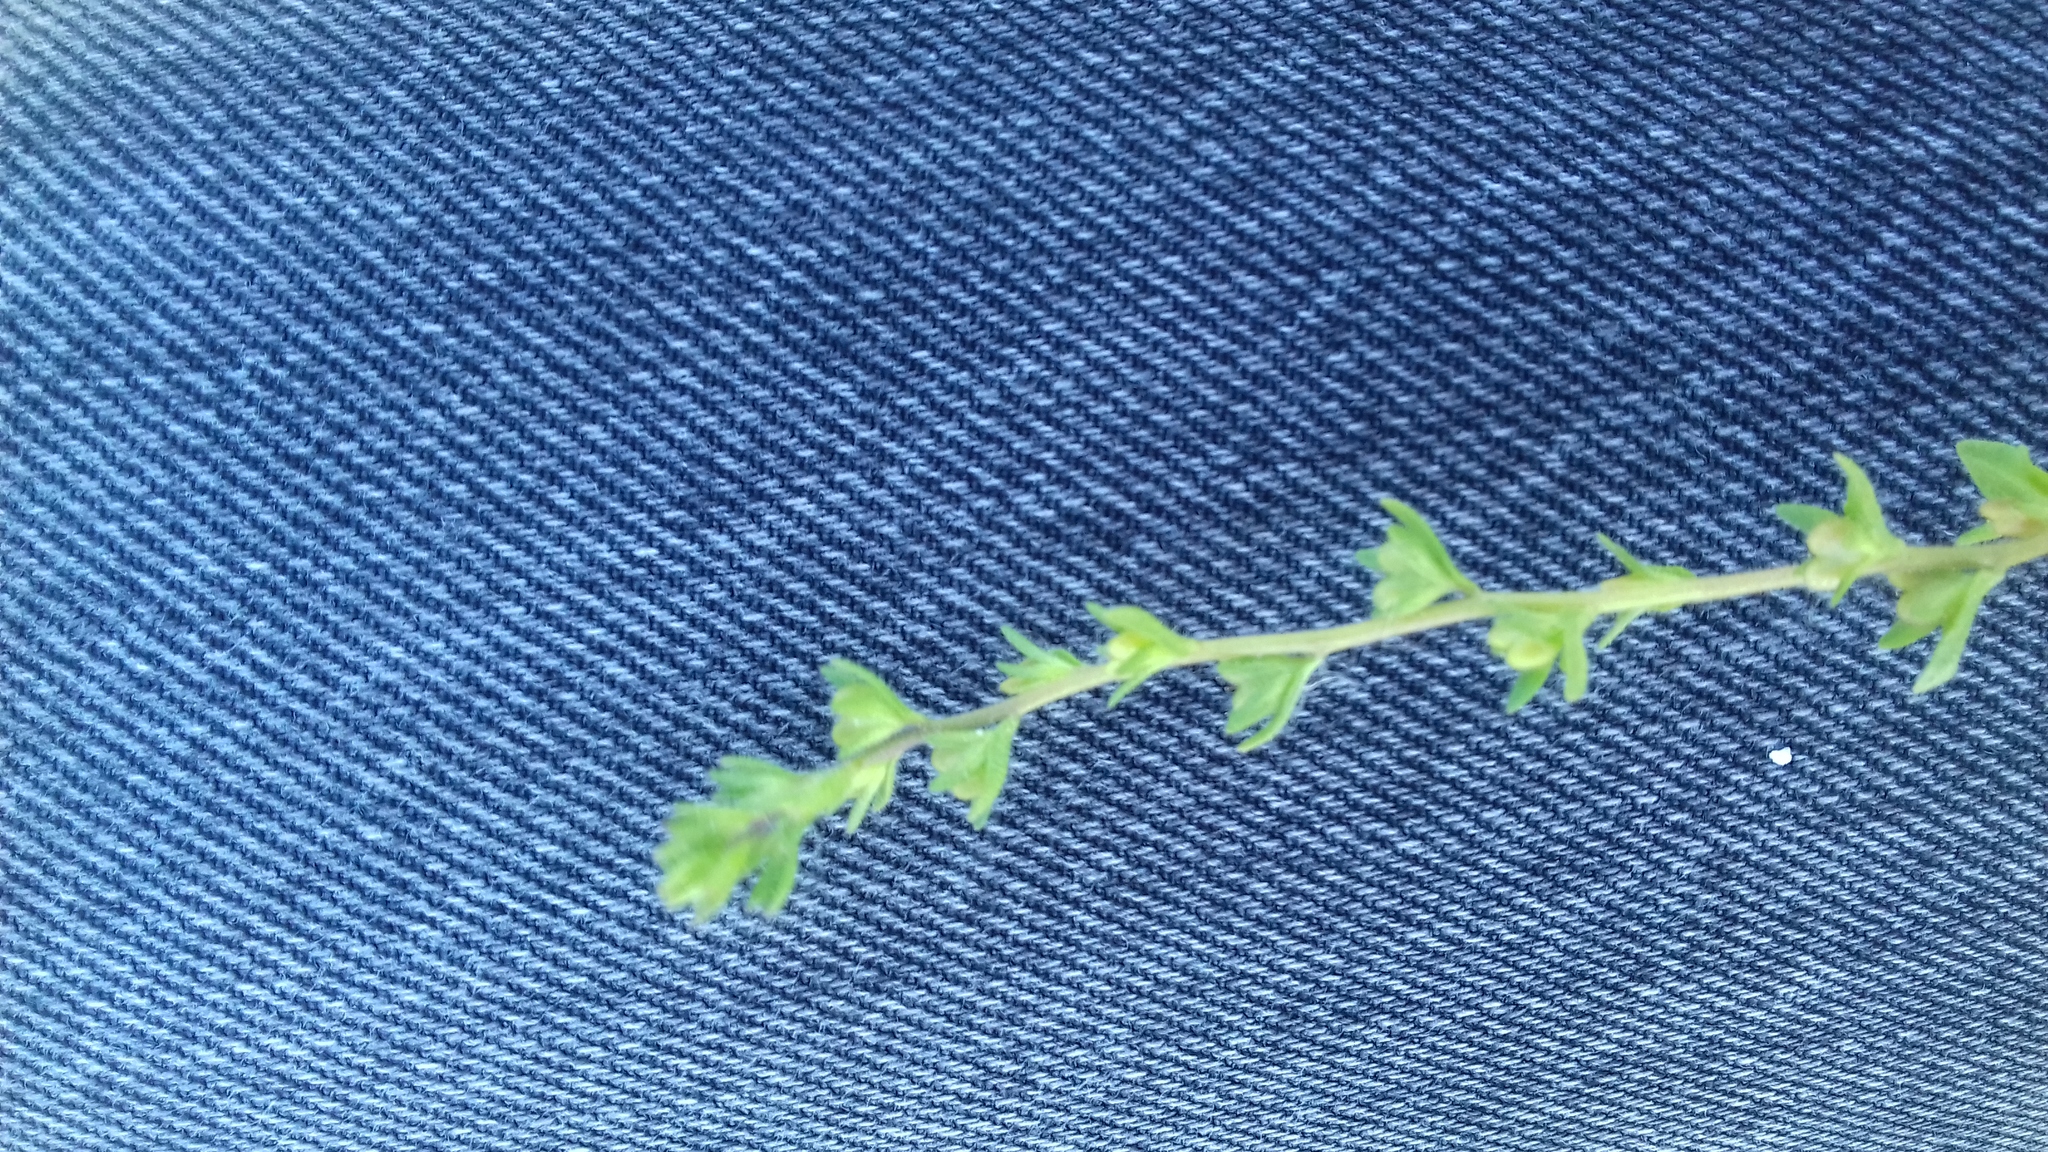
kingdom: Plantae
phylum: Tracheophyta
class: Magnoliopsida
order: Lamiales
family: Plantaginaceae
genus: Veronica
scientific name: Veronica arvensis
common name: Corn speedwell
